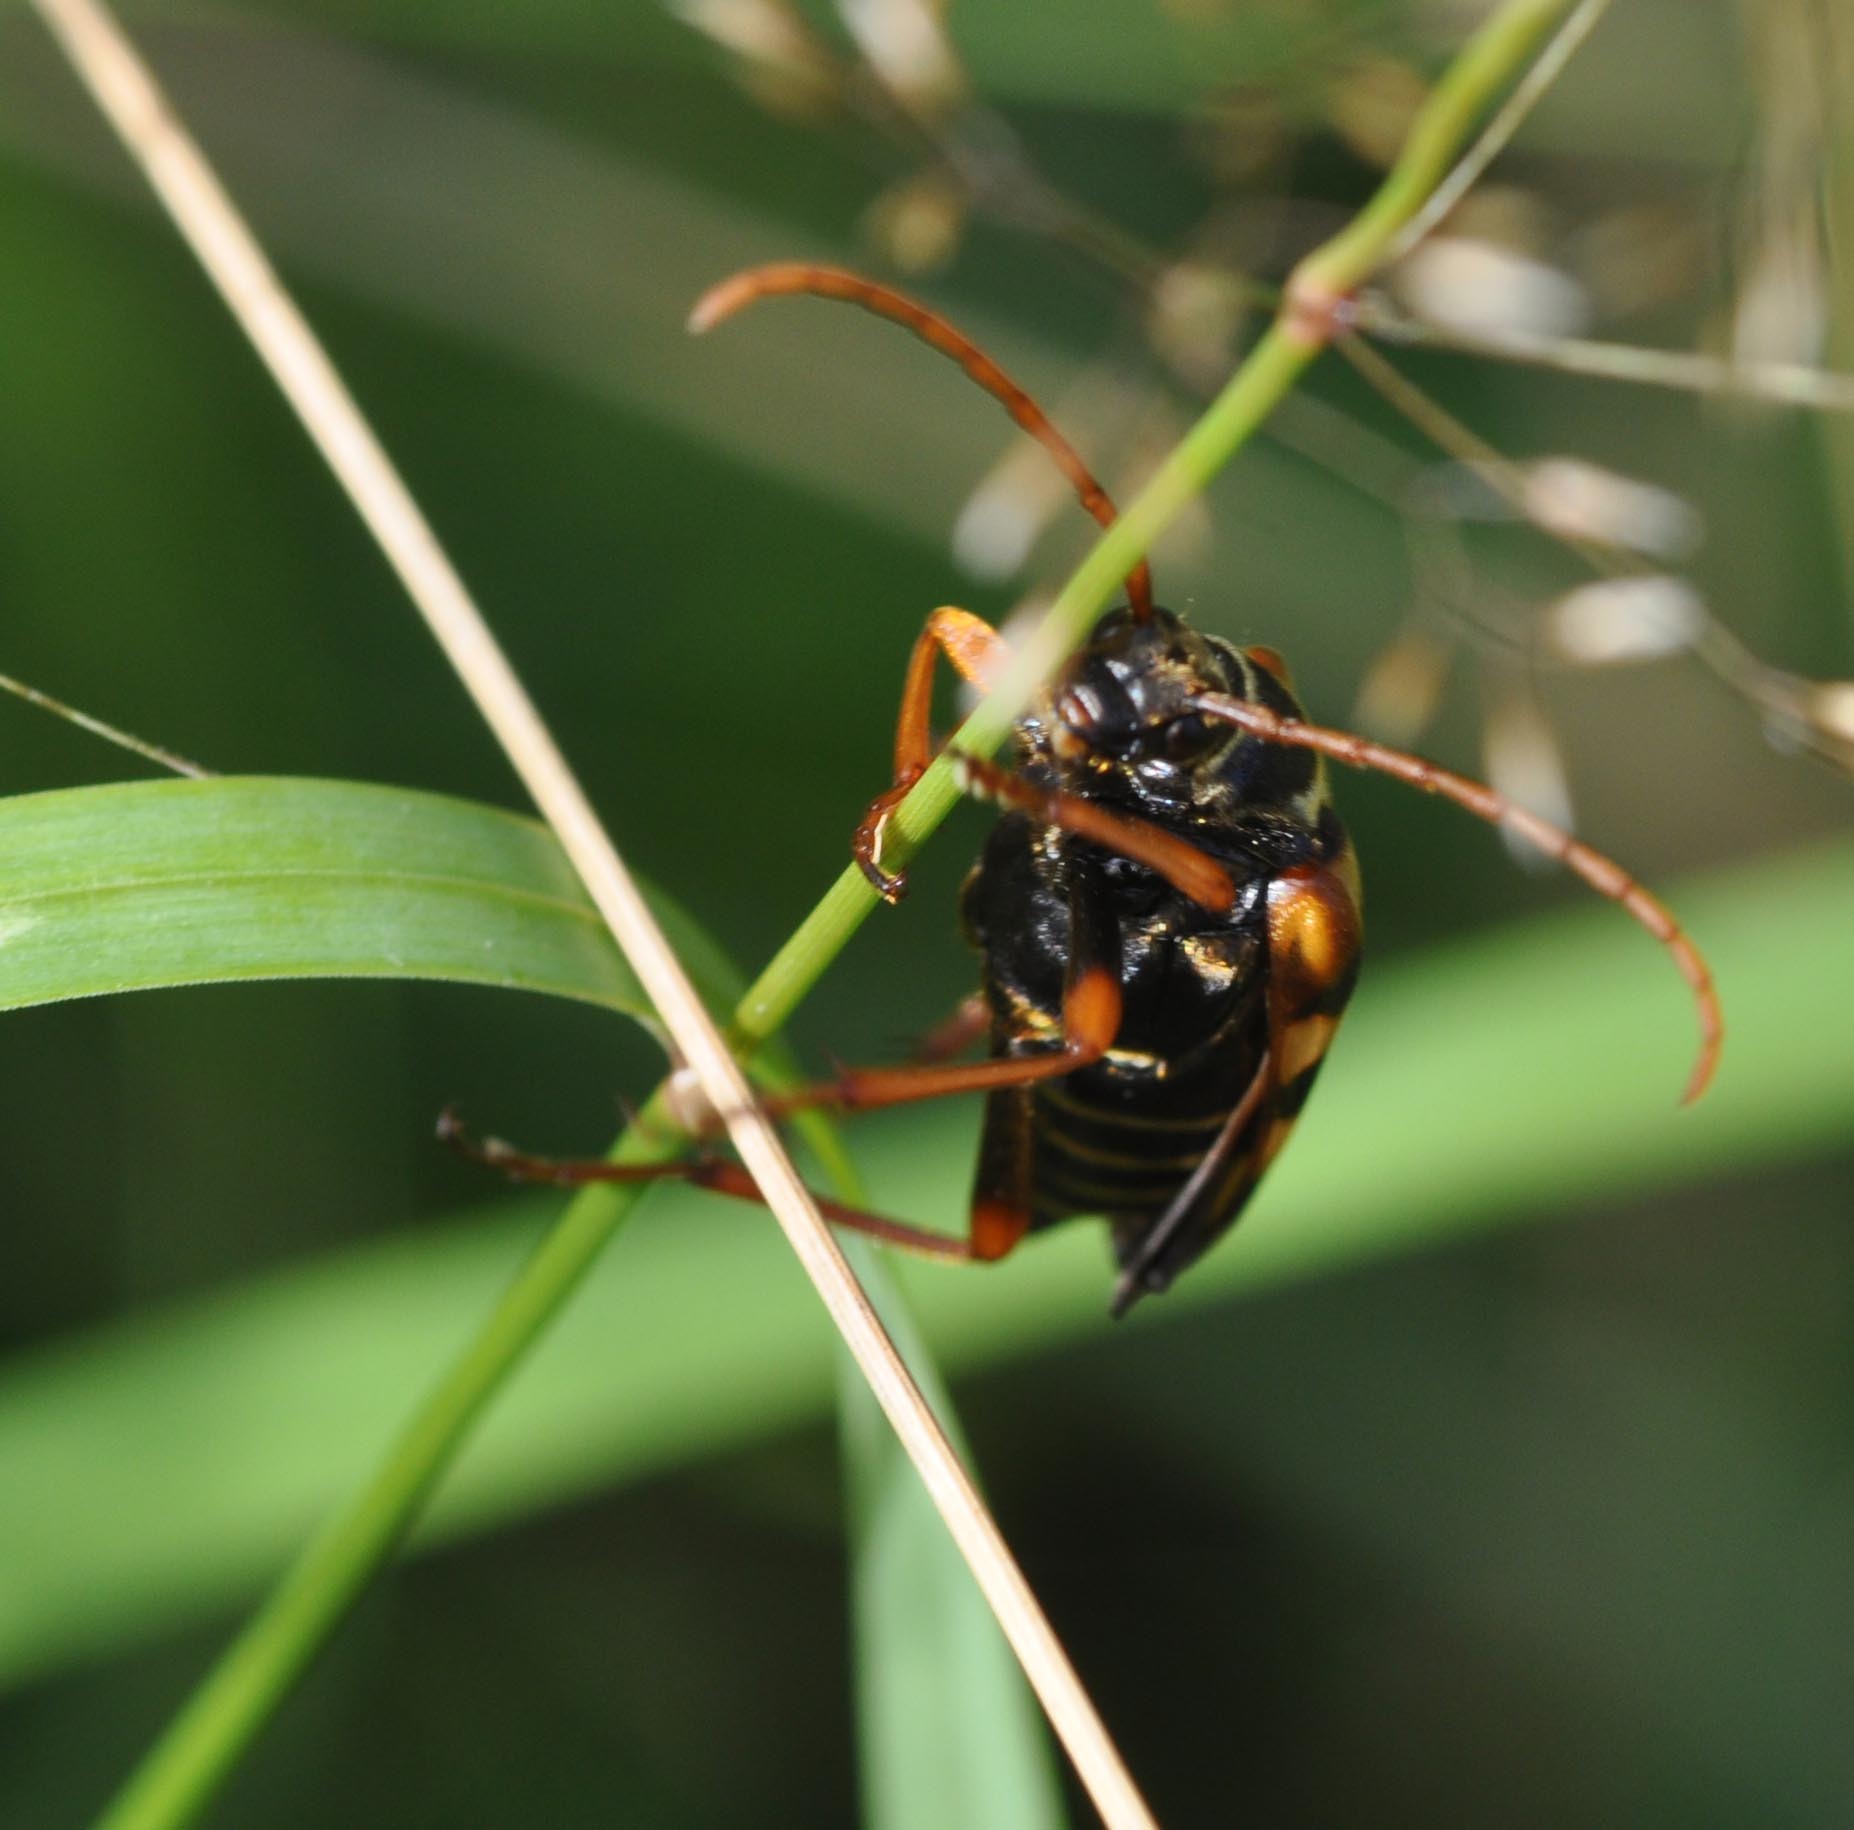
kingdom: Animalia
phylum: Arthropoda
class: Insecta
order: Coleoptera
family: Cerambycidae
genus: Leptura
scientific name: Leptura aurulenta
